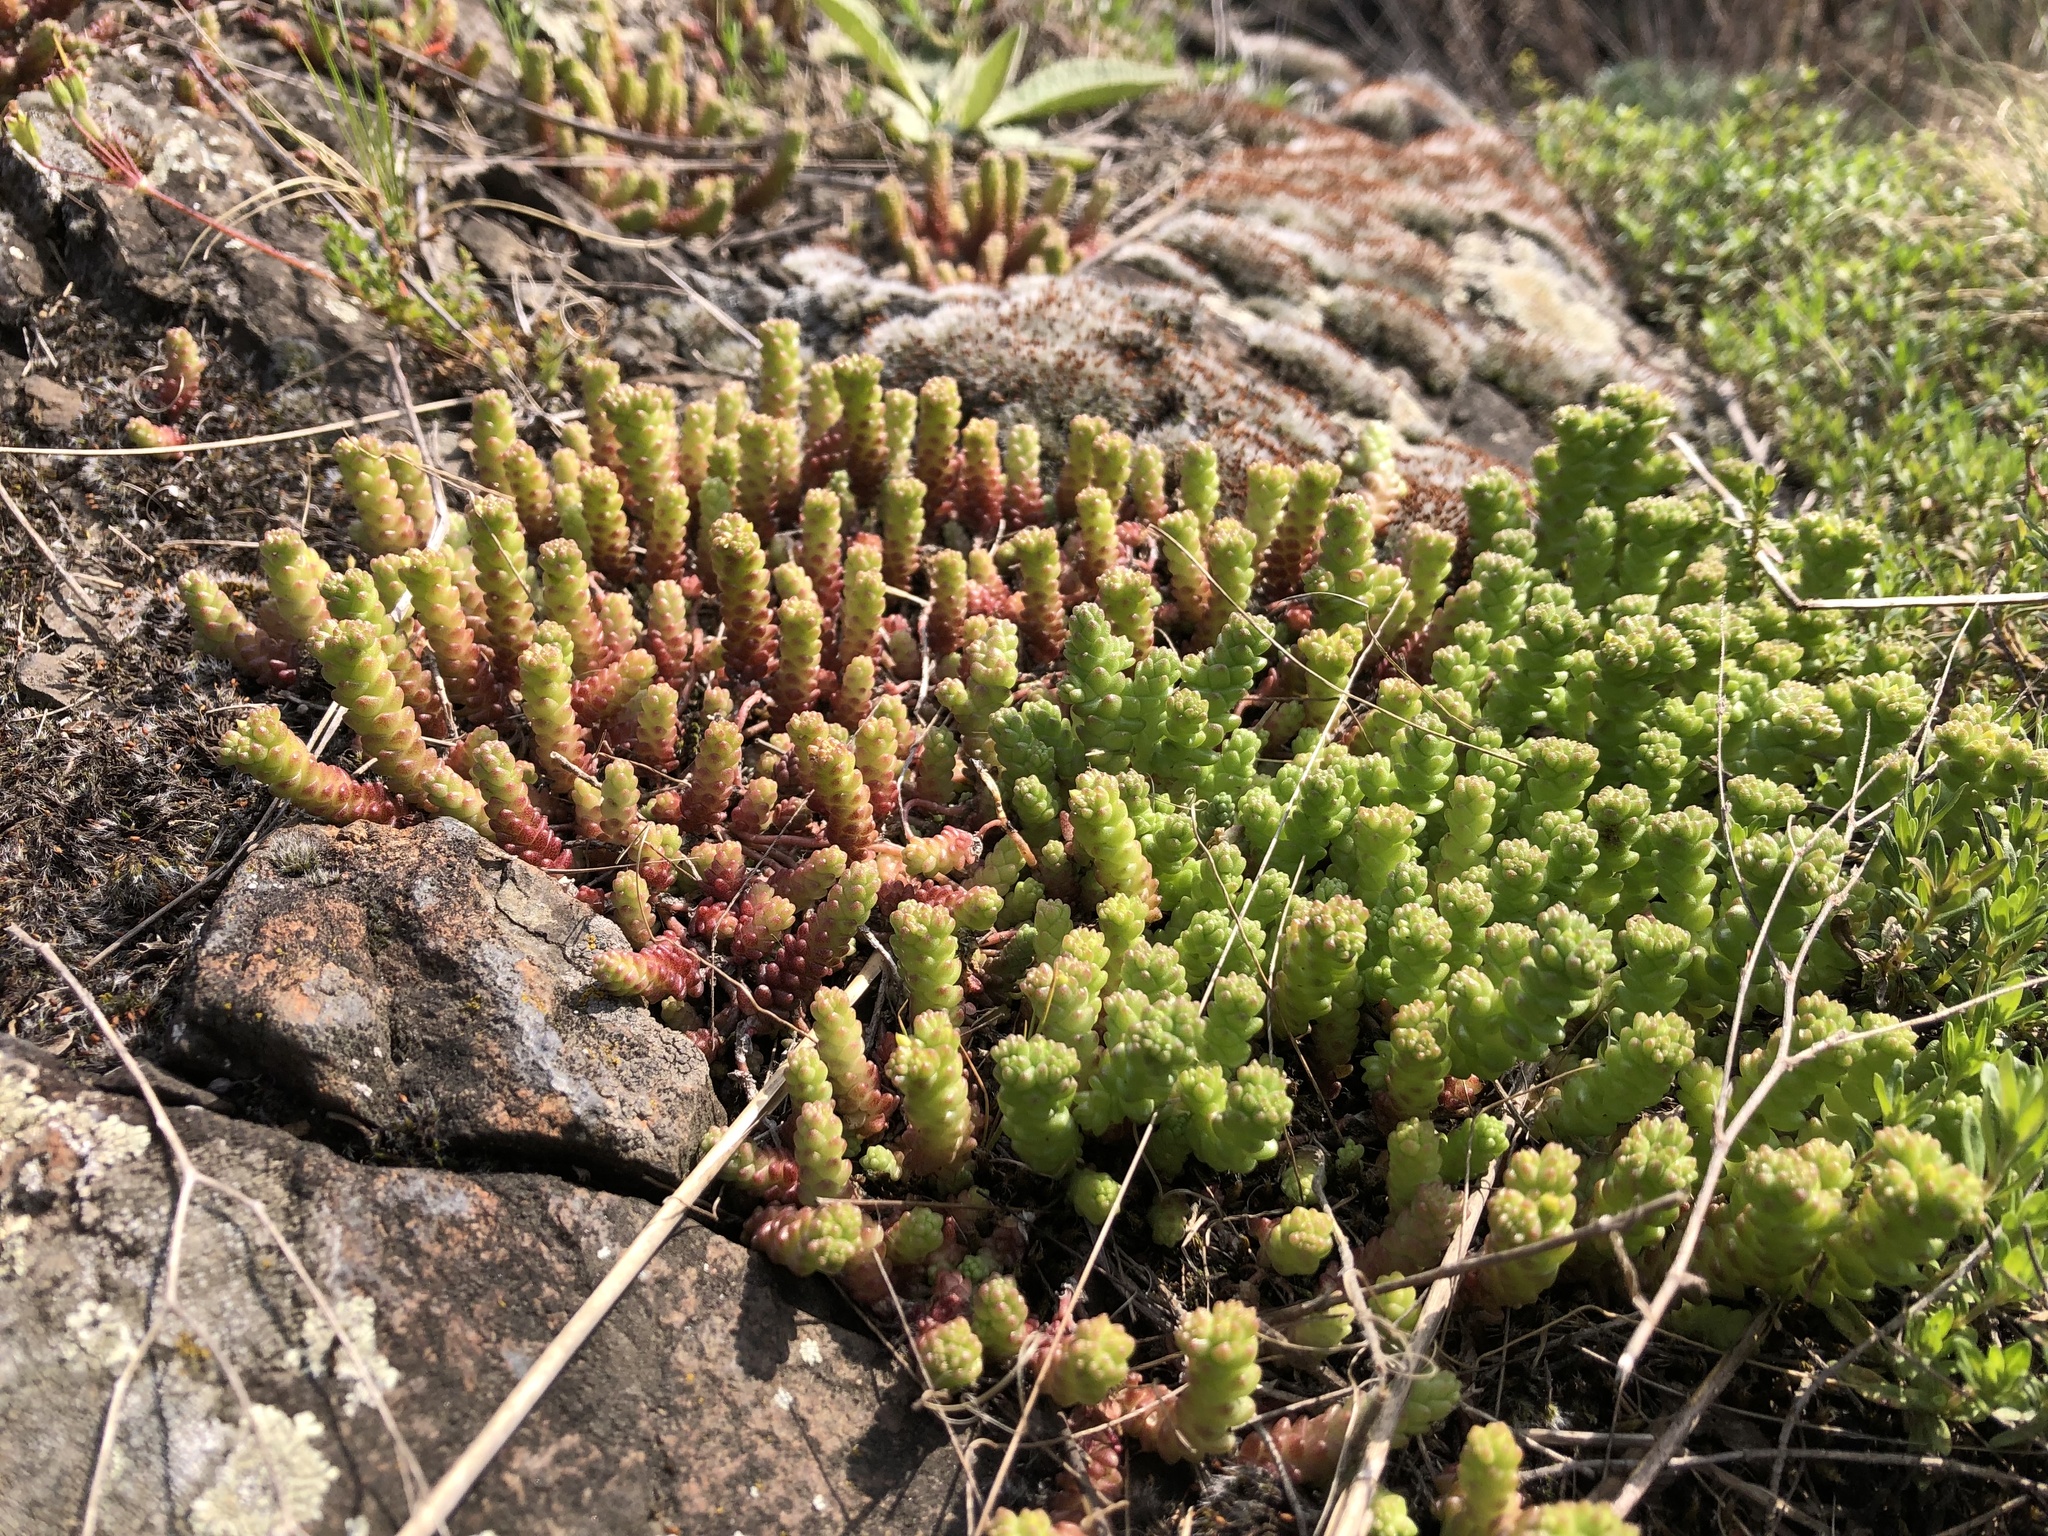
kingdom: Plantae
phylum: Tracheophyta
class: Magnoliopsida
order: Saxifragales
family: Crassulaceae
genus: Sedum
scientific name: Sedum acre
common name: Biting stonecrop
